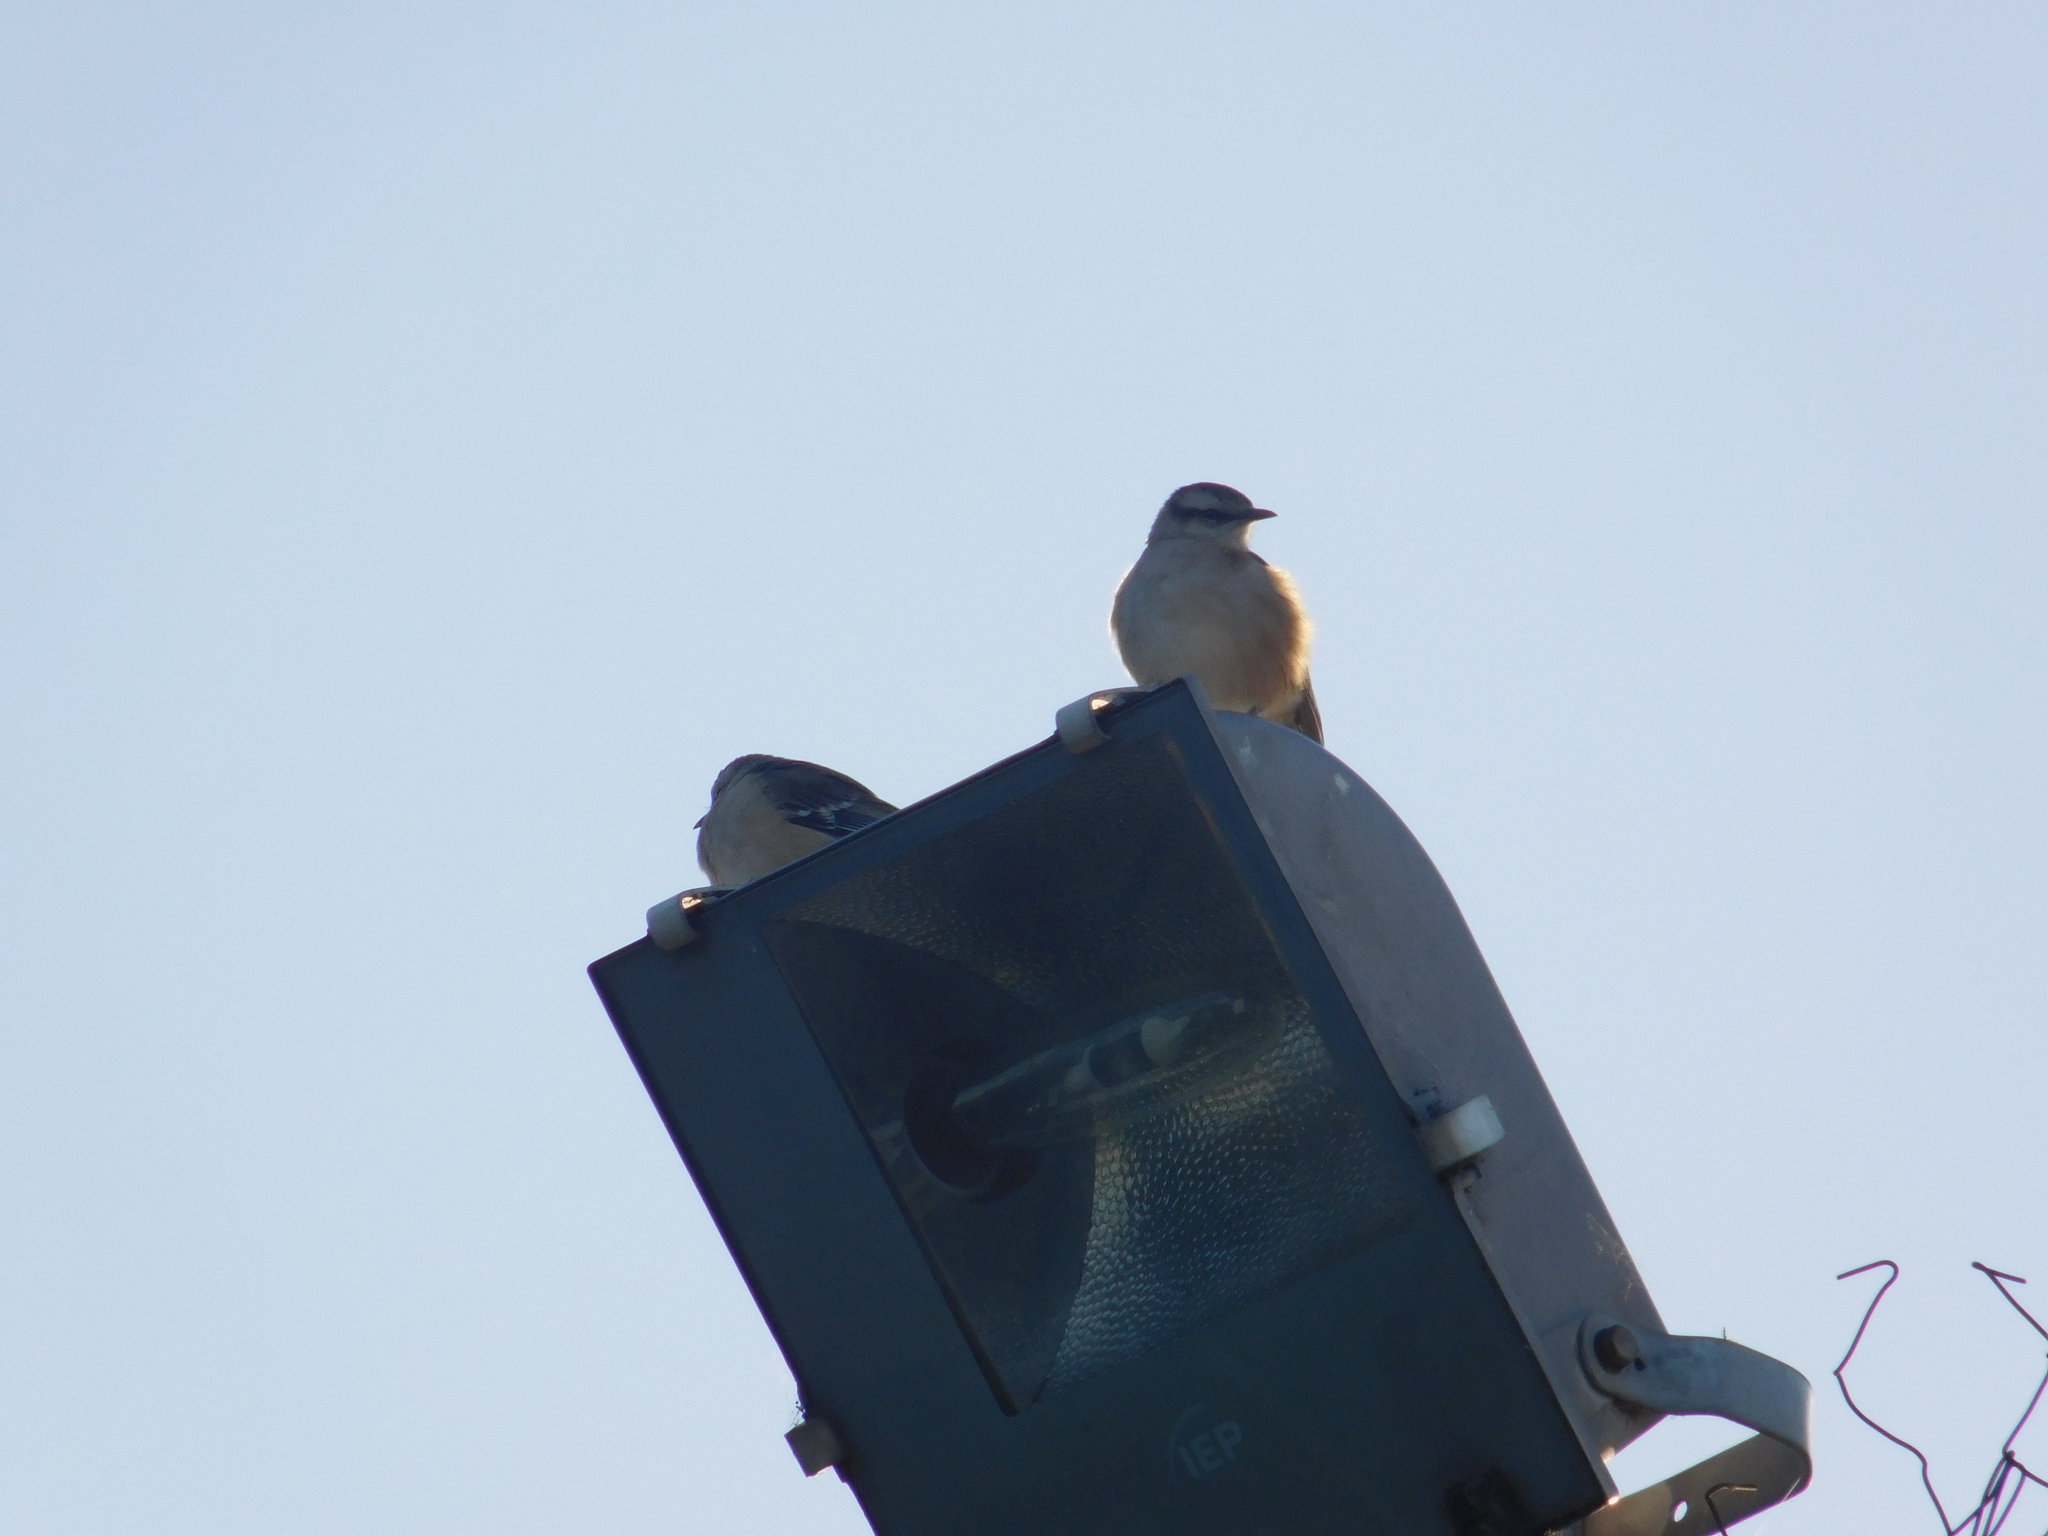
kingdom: Animalia
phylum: Chordata
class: Aves
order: Passeriformes
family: Mimidae
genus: Mimus
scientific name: Mimus saturninus
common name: Chalk-browed mockingbird
